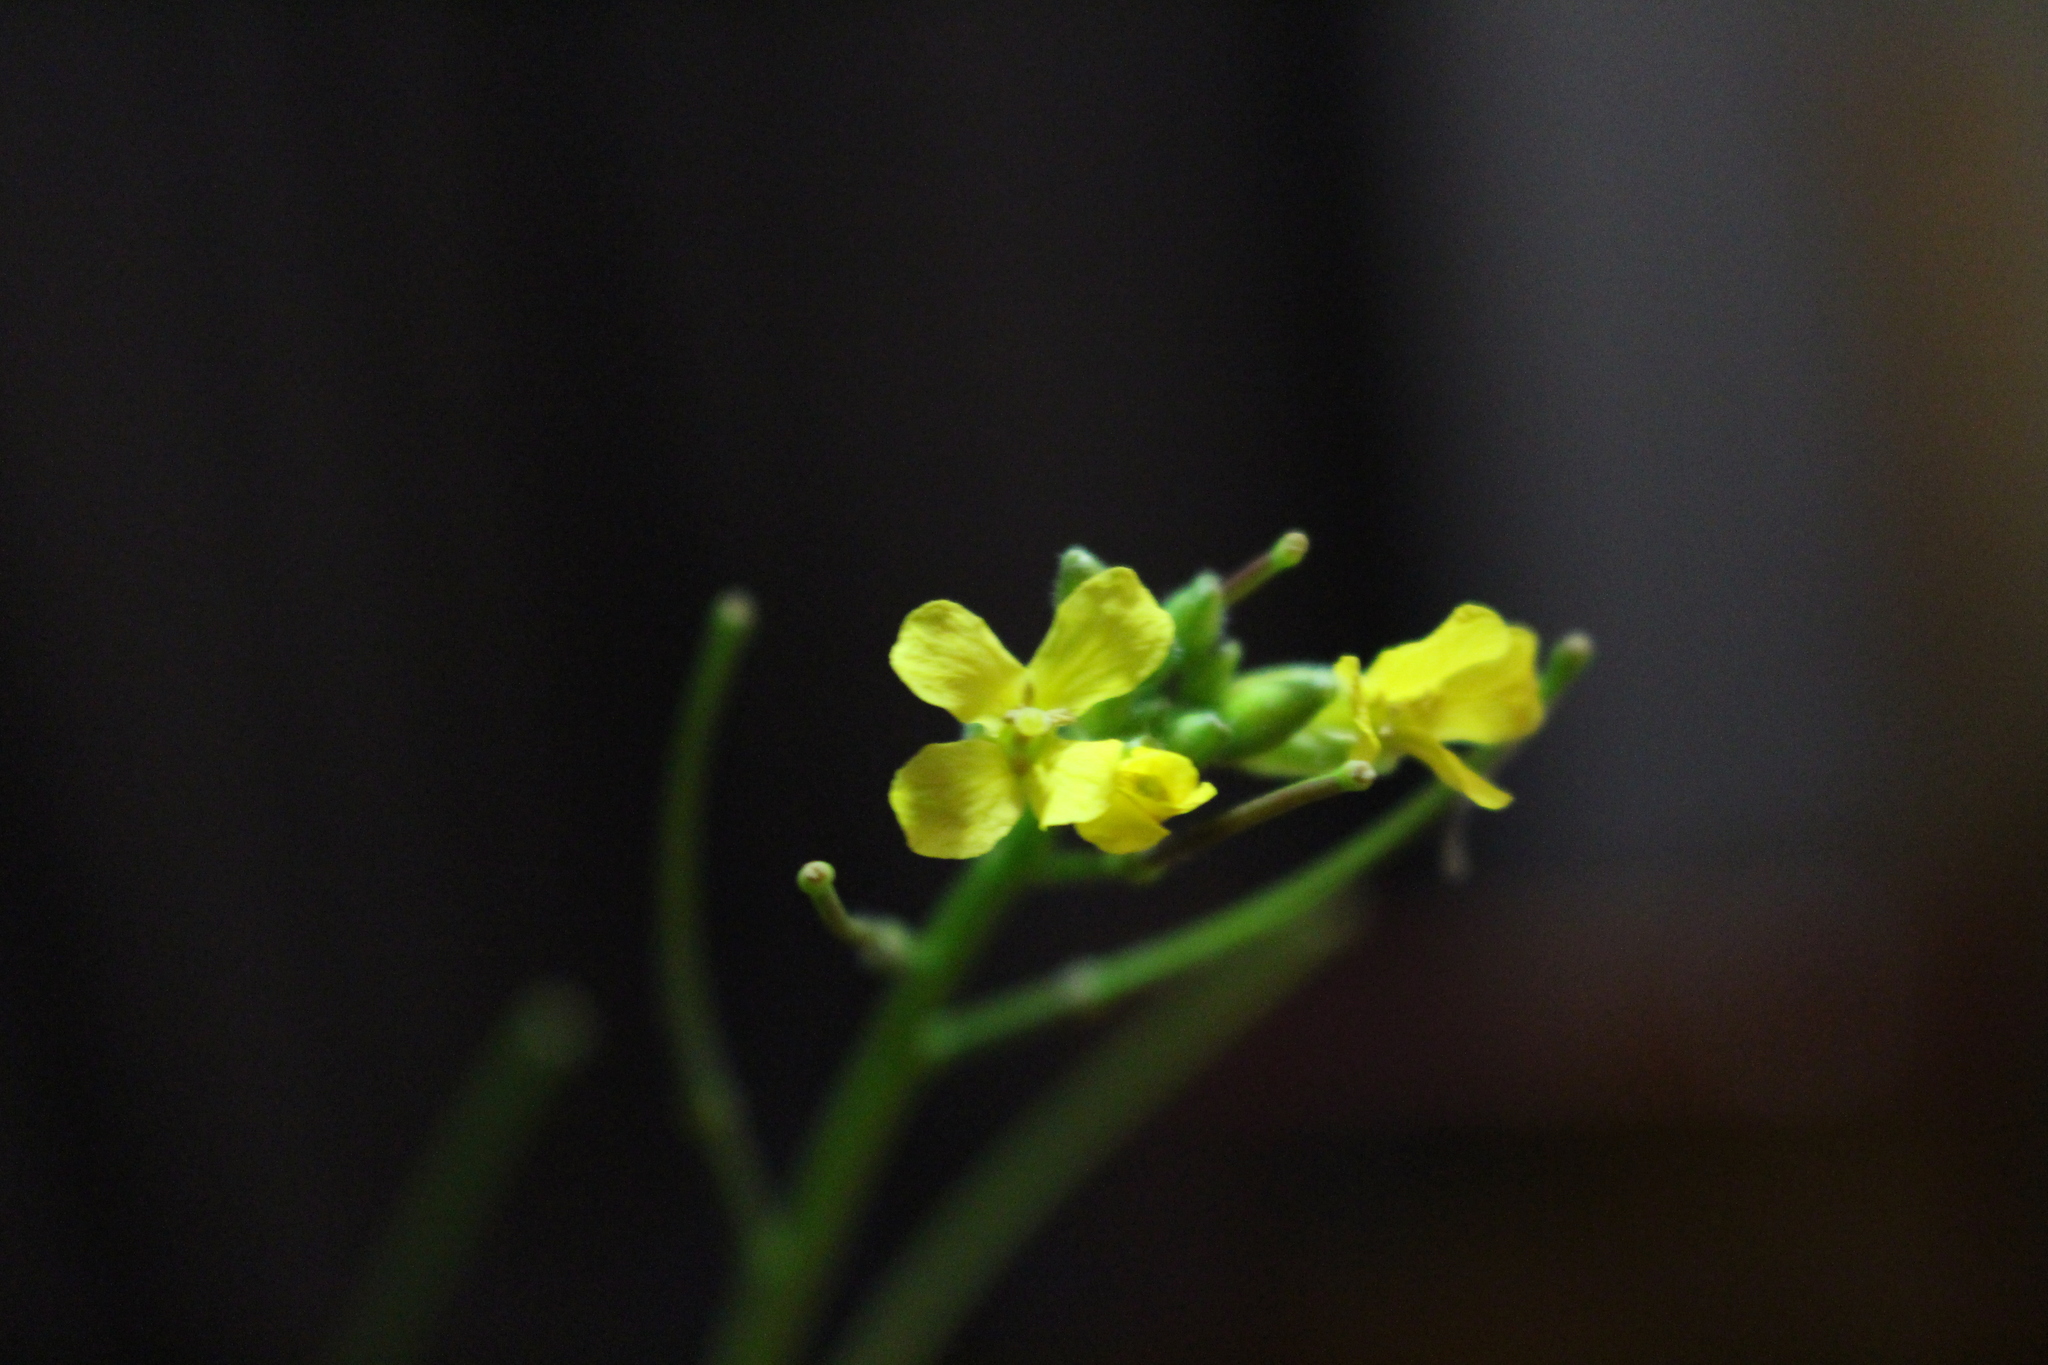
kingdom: Plantae
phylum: Tracheophyta
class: Magnoliopsida
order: Brassicales
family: Brassicaceae
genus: Sisymbrium
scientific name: Sisymbrium orientale
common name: Eastern rocket
